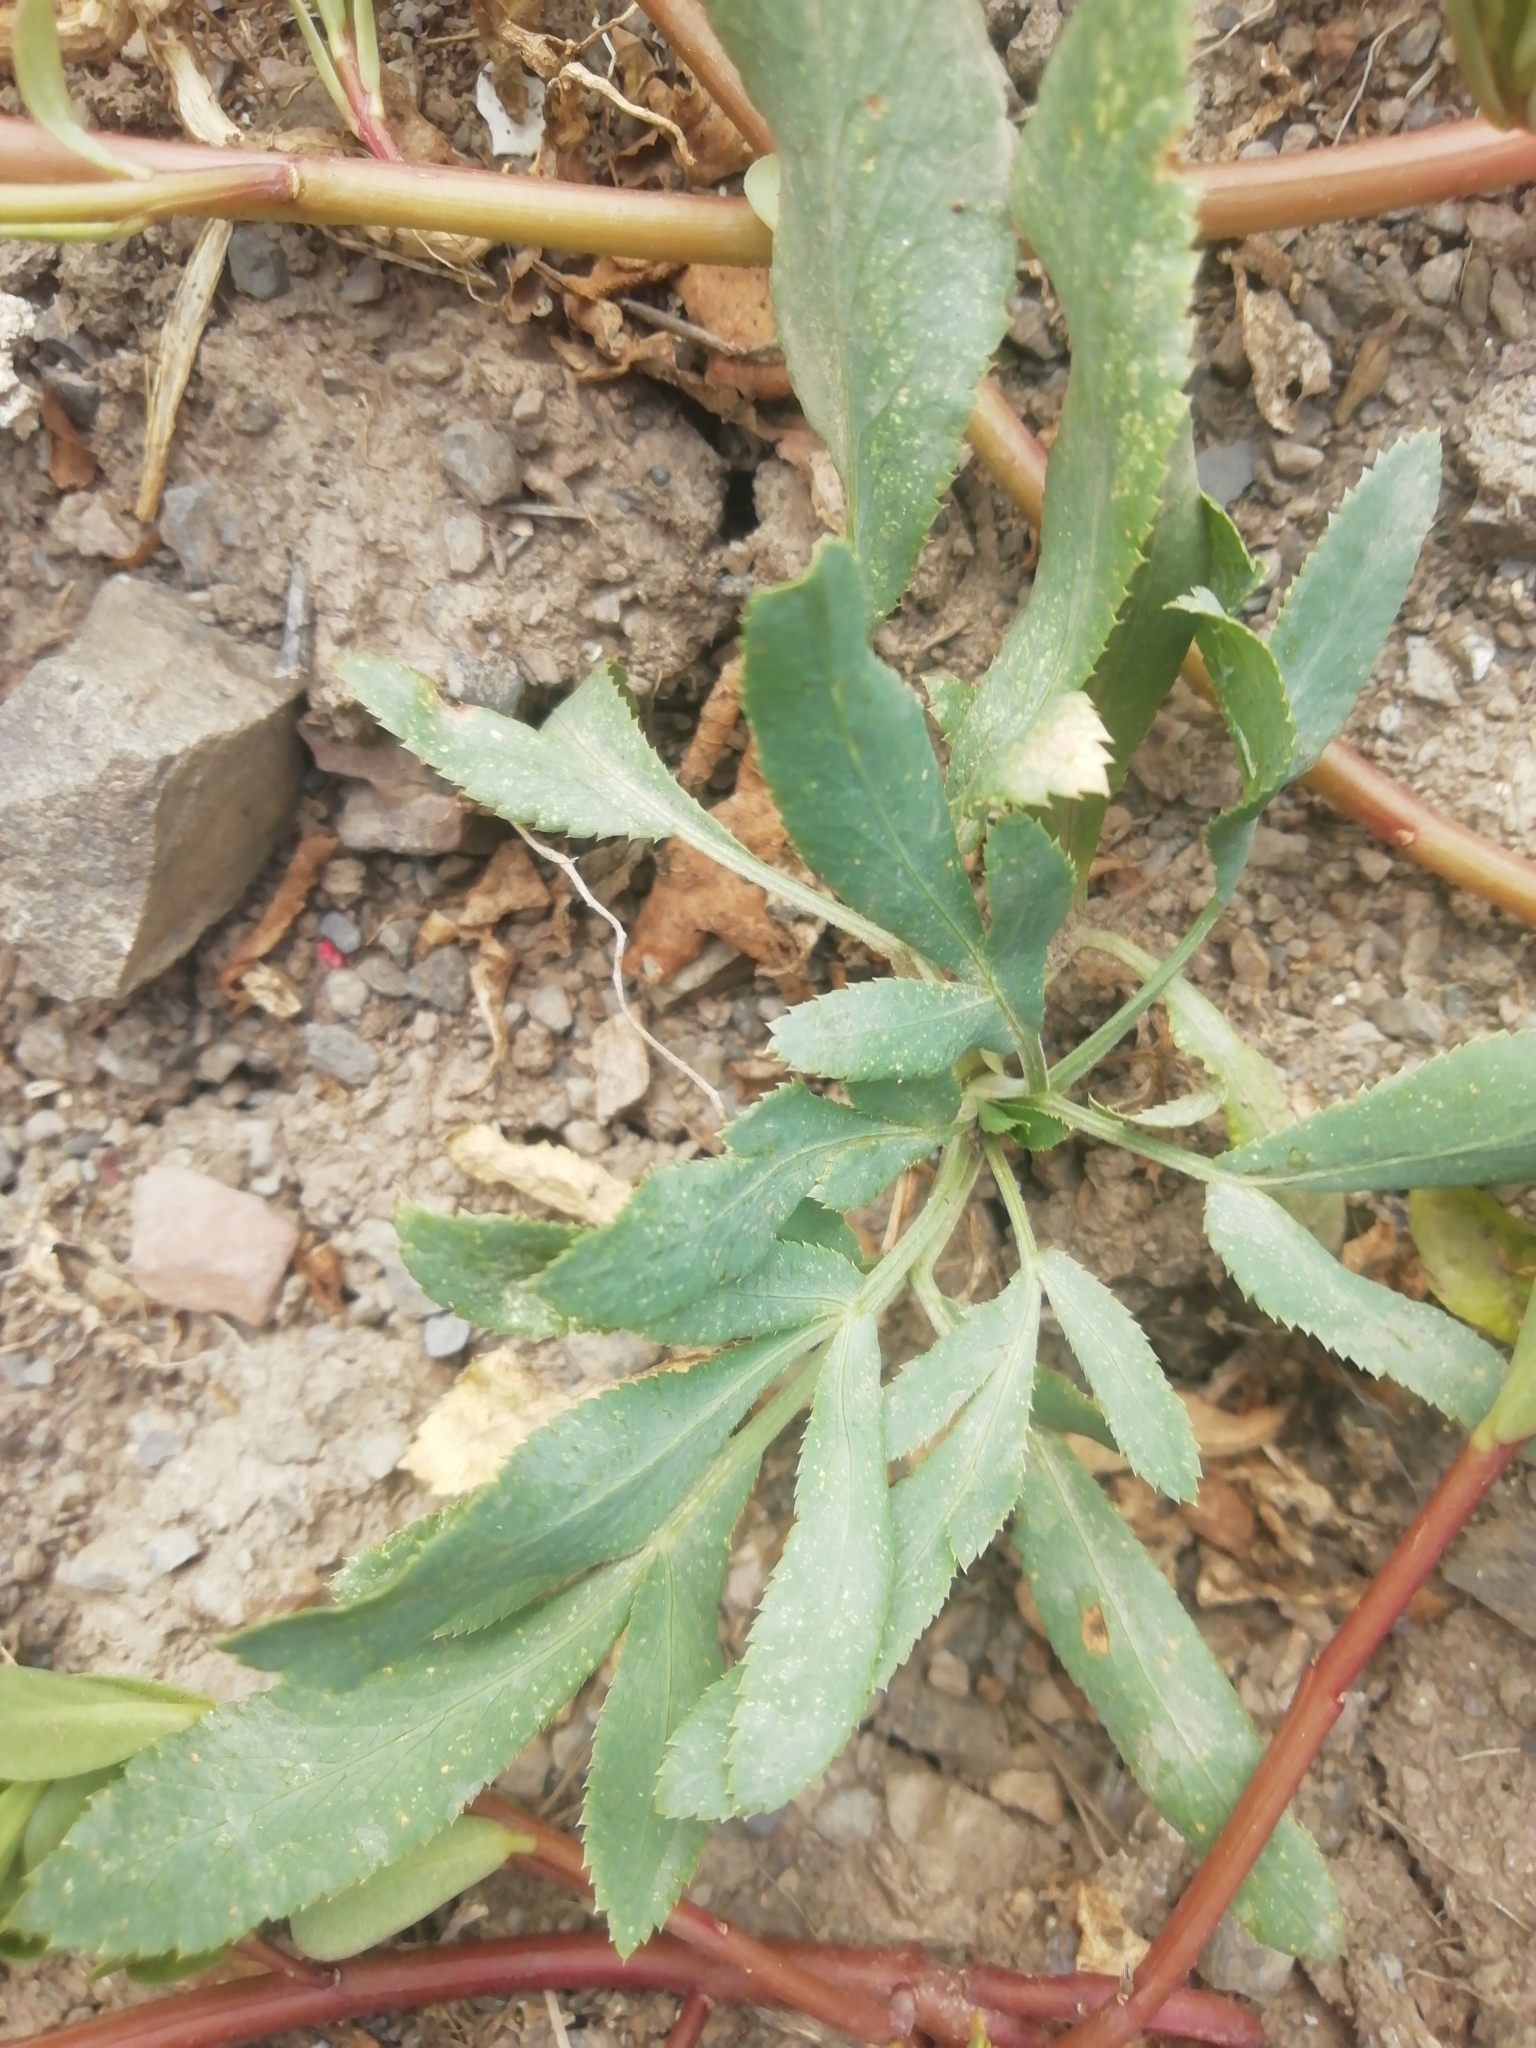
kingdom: Plantae
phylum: Tracheophyta
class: Magnoliopsida
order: Apiales
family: Apiaceae
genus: Falcaria
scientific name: Falcaria vulgaris
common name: Longleaf
